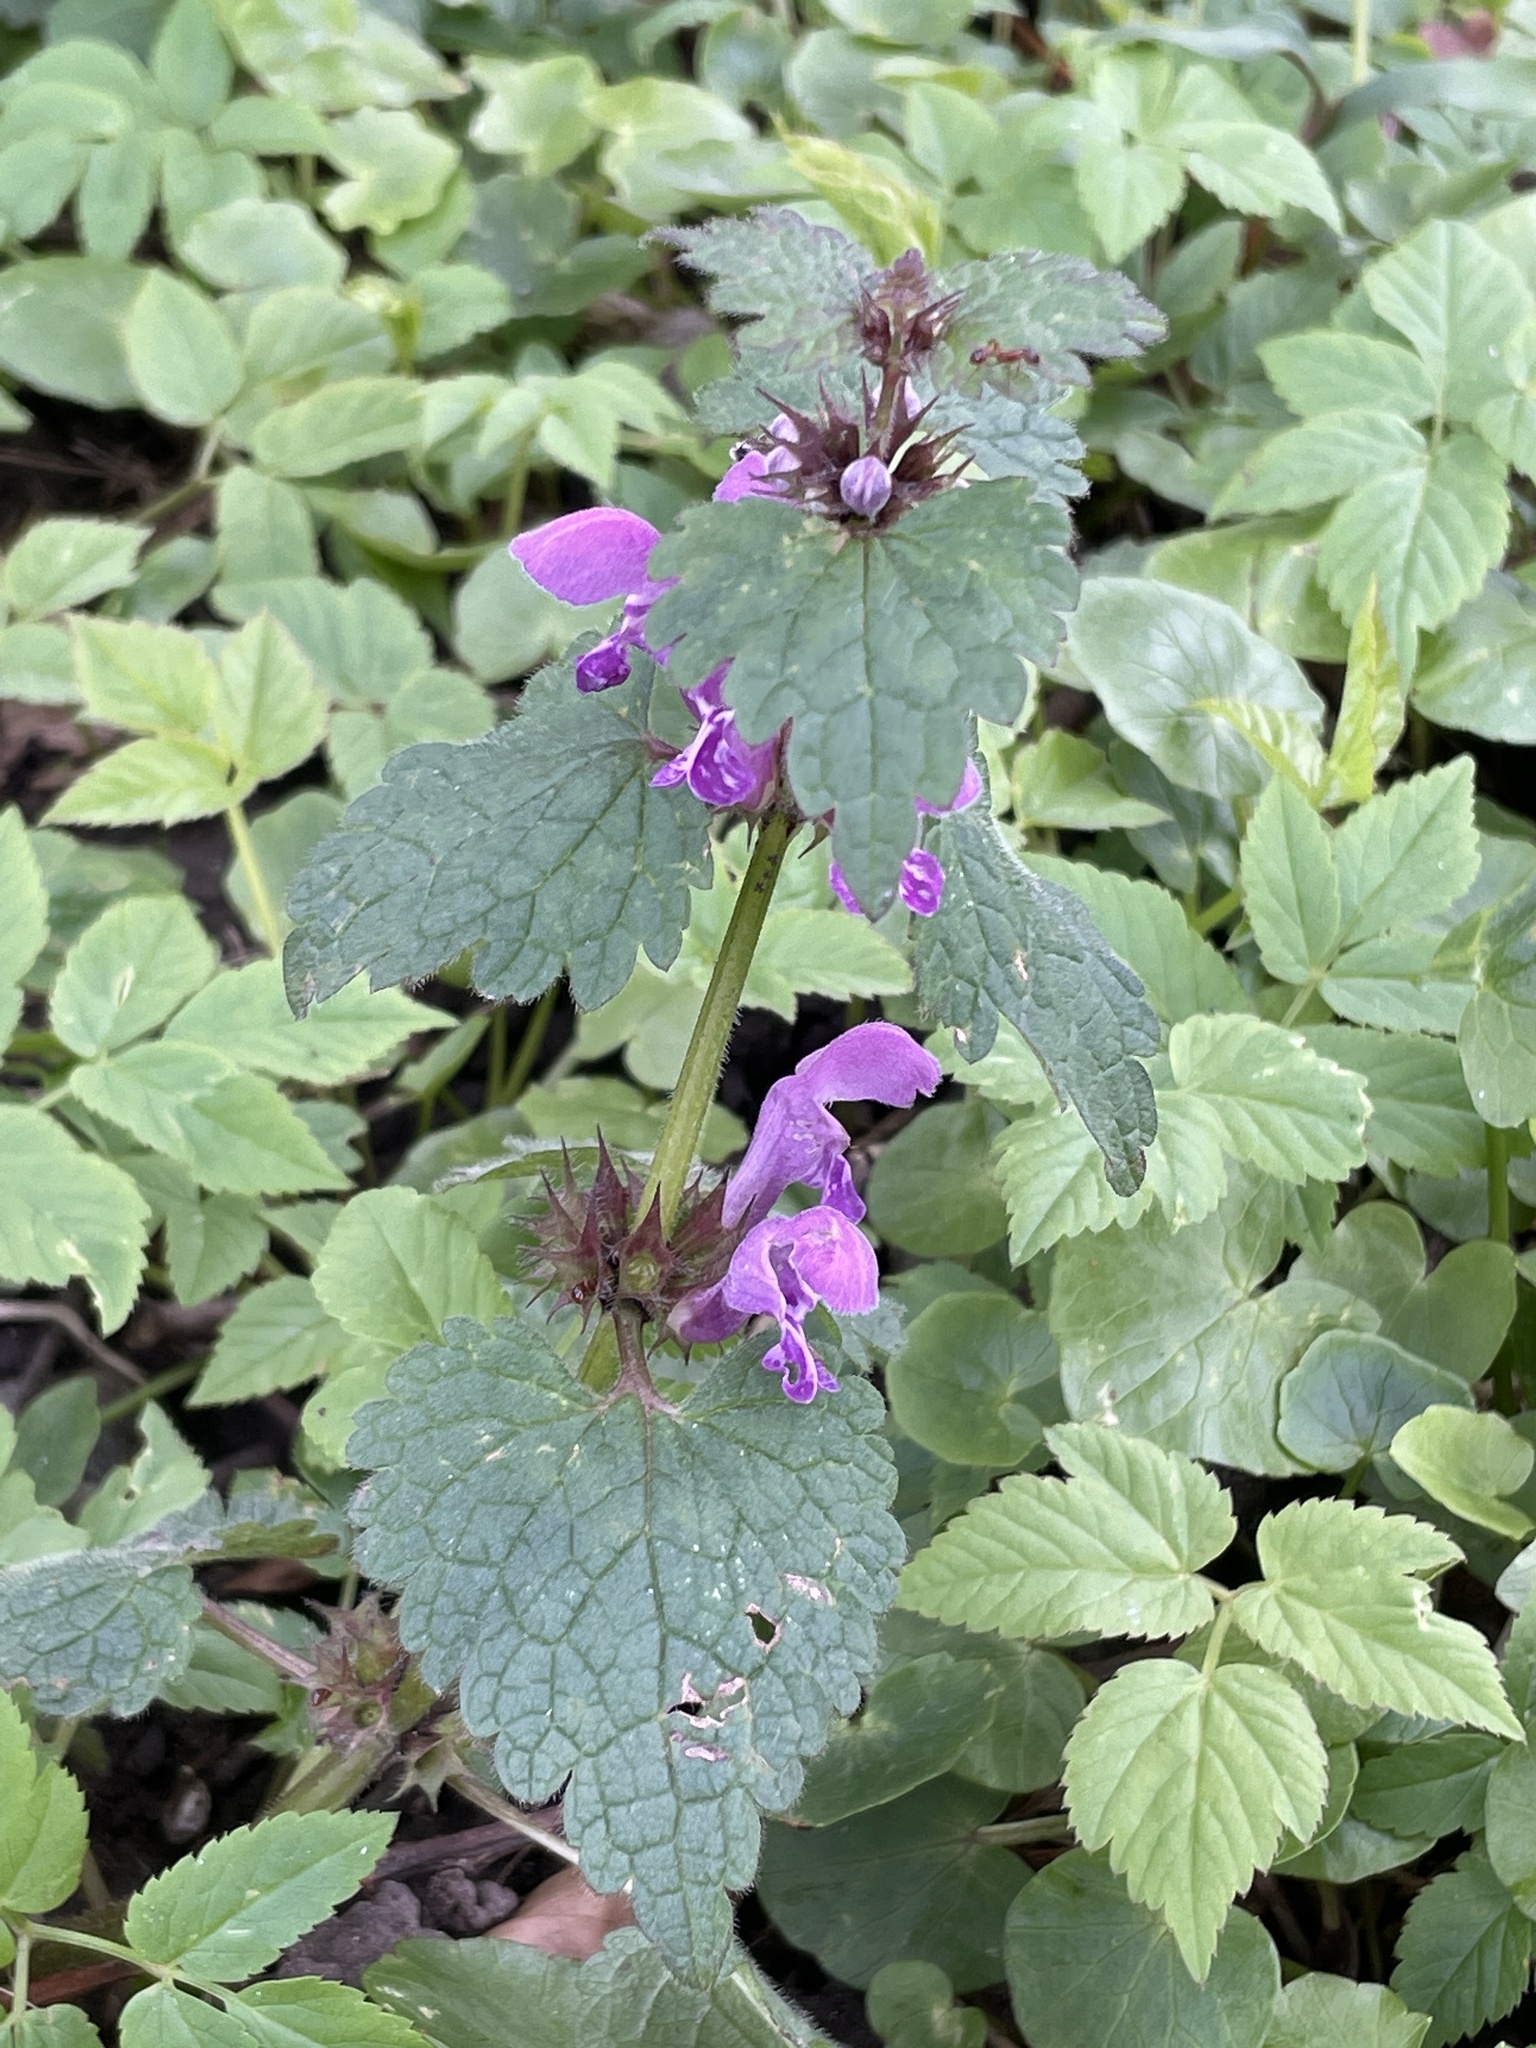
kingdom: Plantae
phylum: Tracheophyta
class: Magnoliopsida
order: Lamiales
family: Lamiaceae
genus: Lamium
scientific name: Lamium maculatum
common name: Spotted dead-nettle
